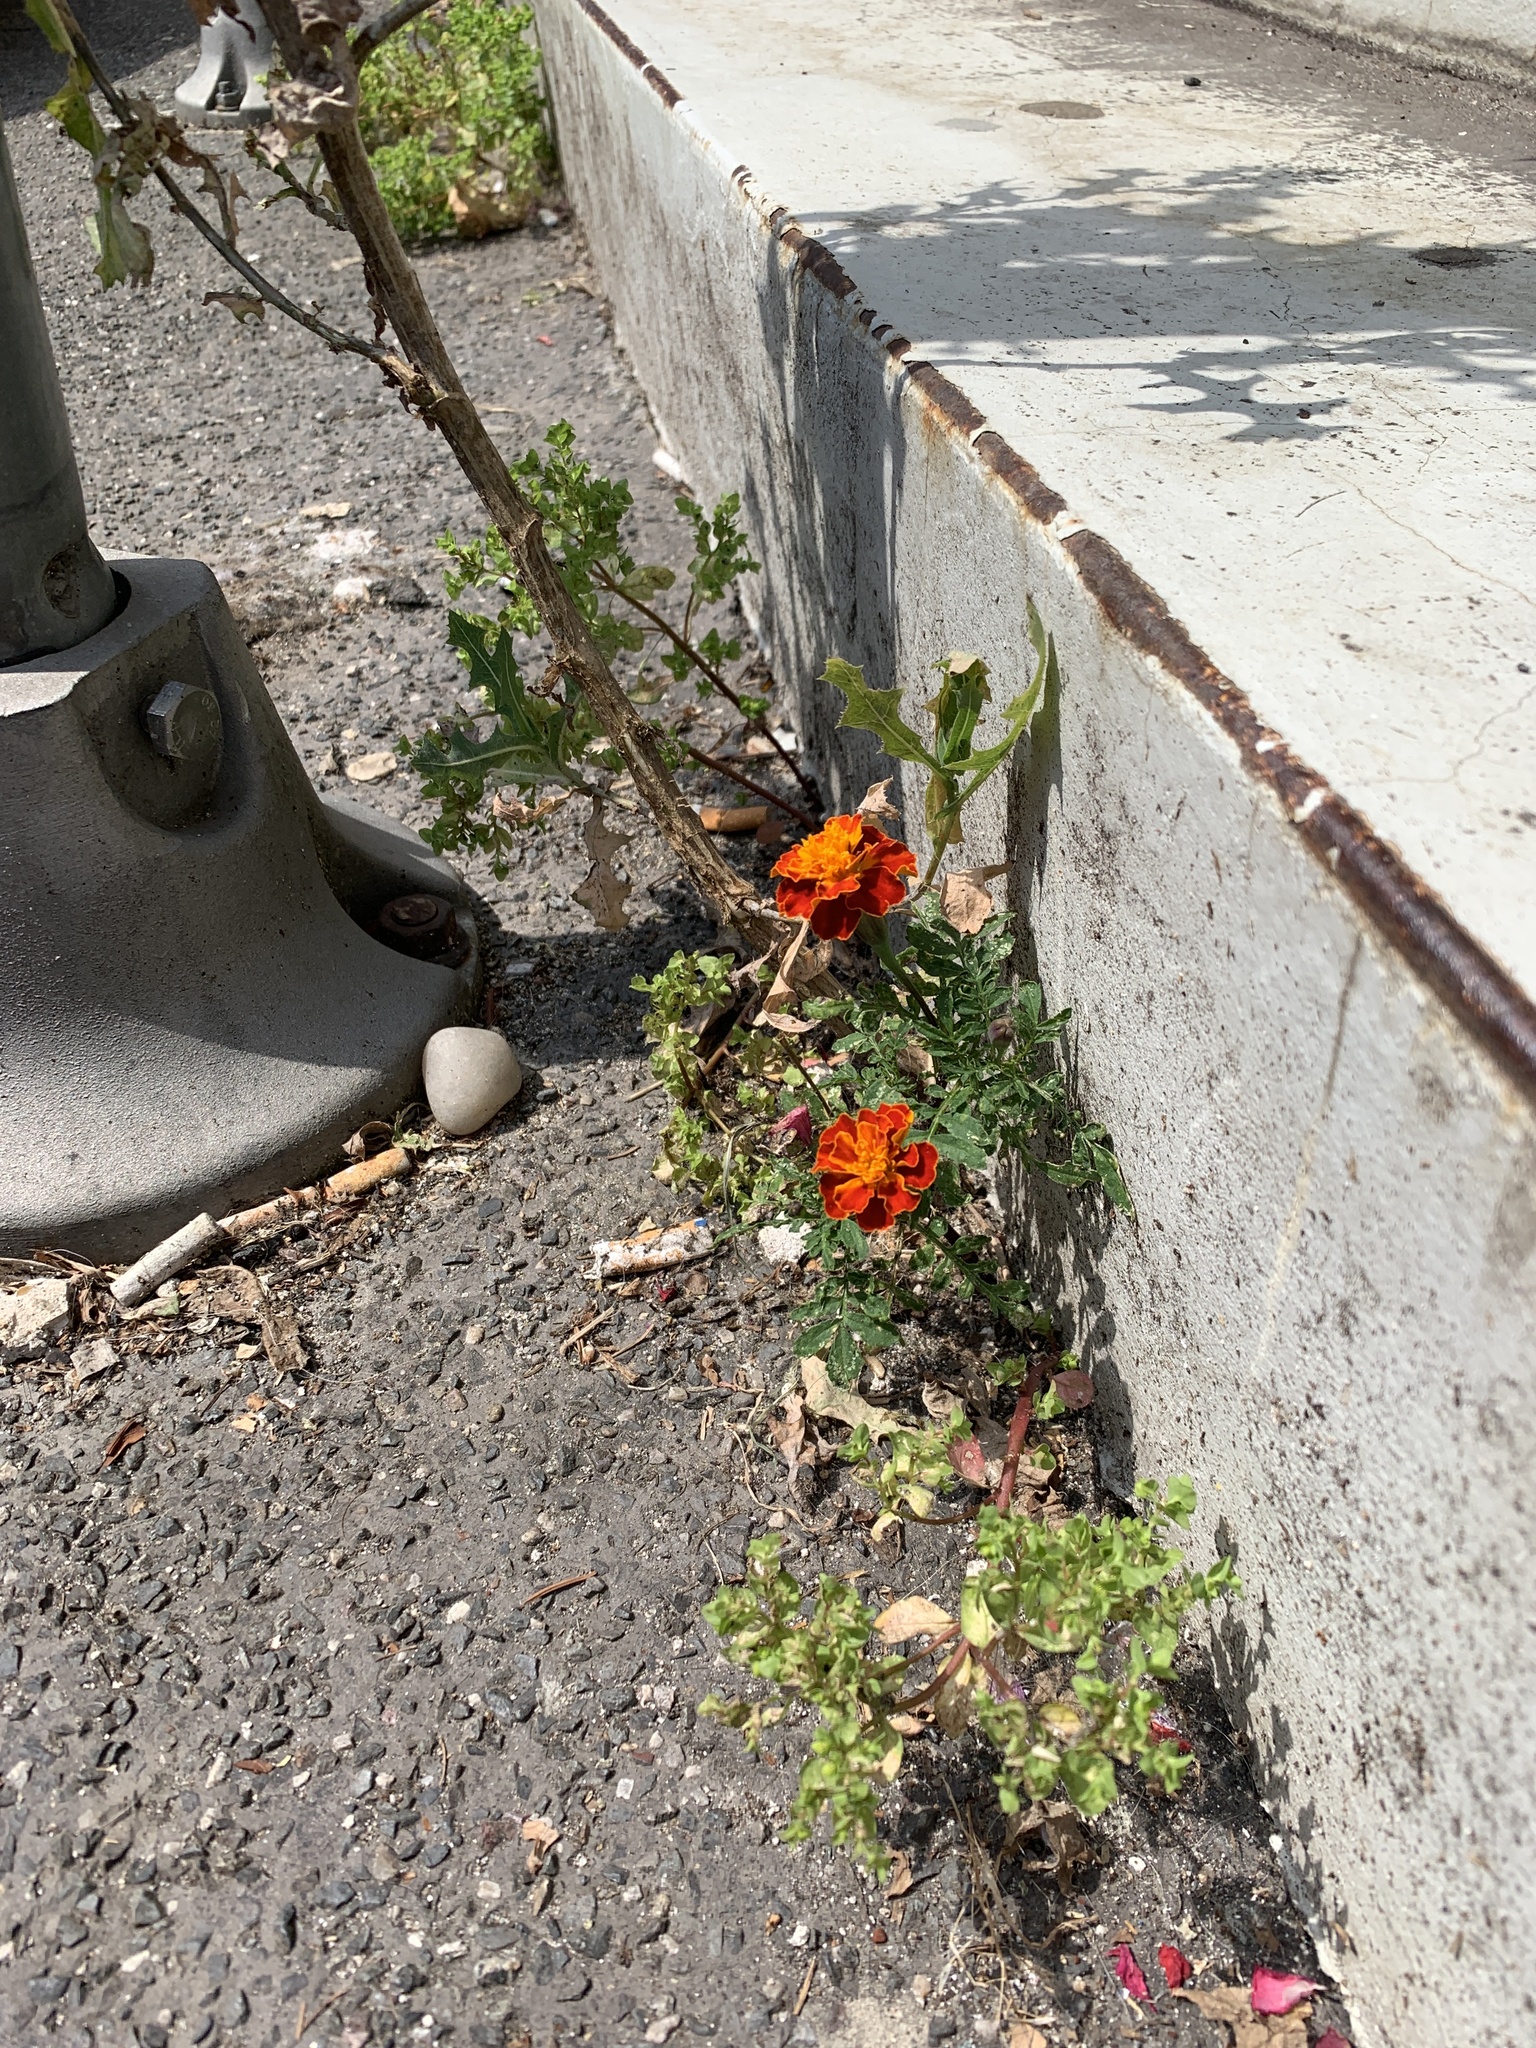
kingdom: Plantae
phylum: Tracheophyta
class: Magnoliopsida
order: Asterales
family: Asteraceae
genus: Tagetes
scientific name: Tagetes erecta
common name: African marigold
